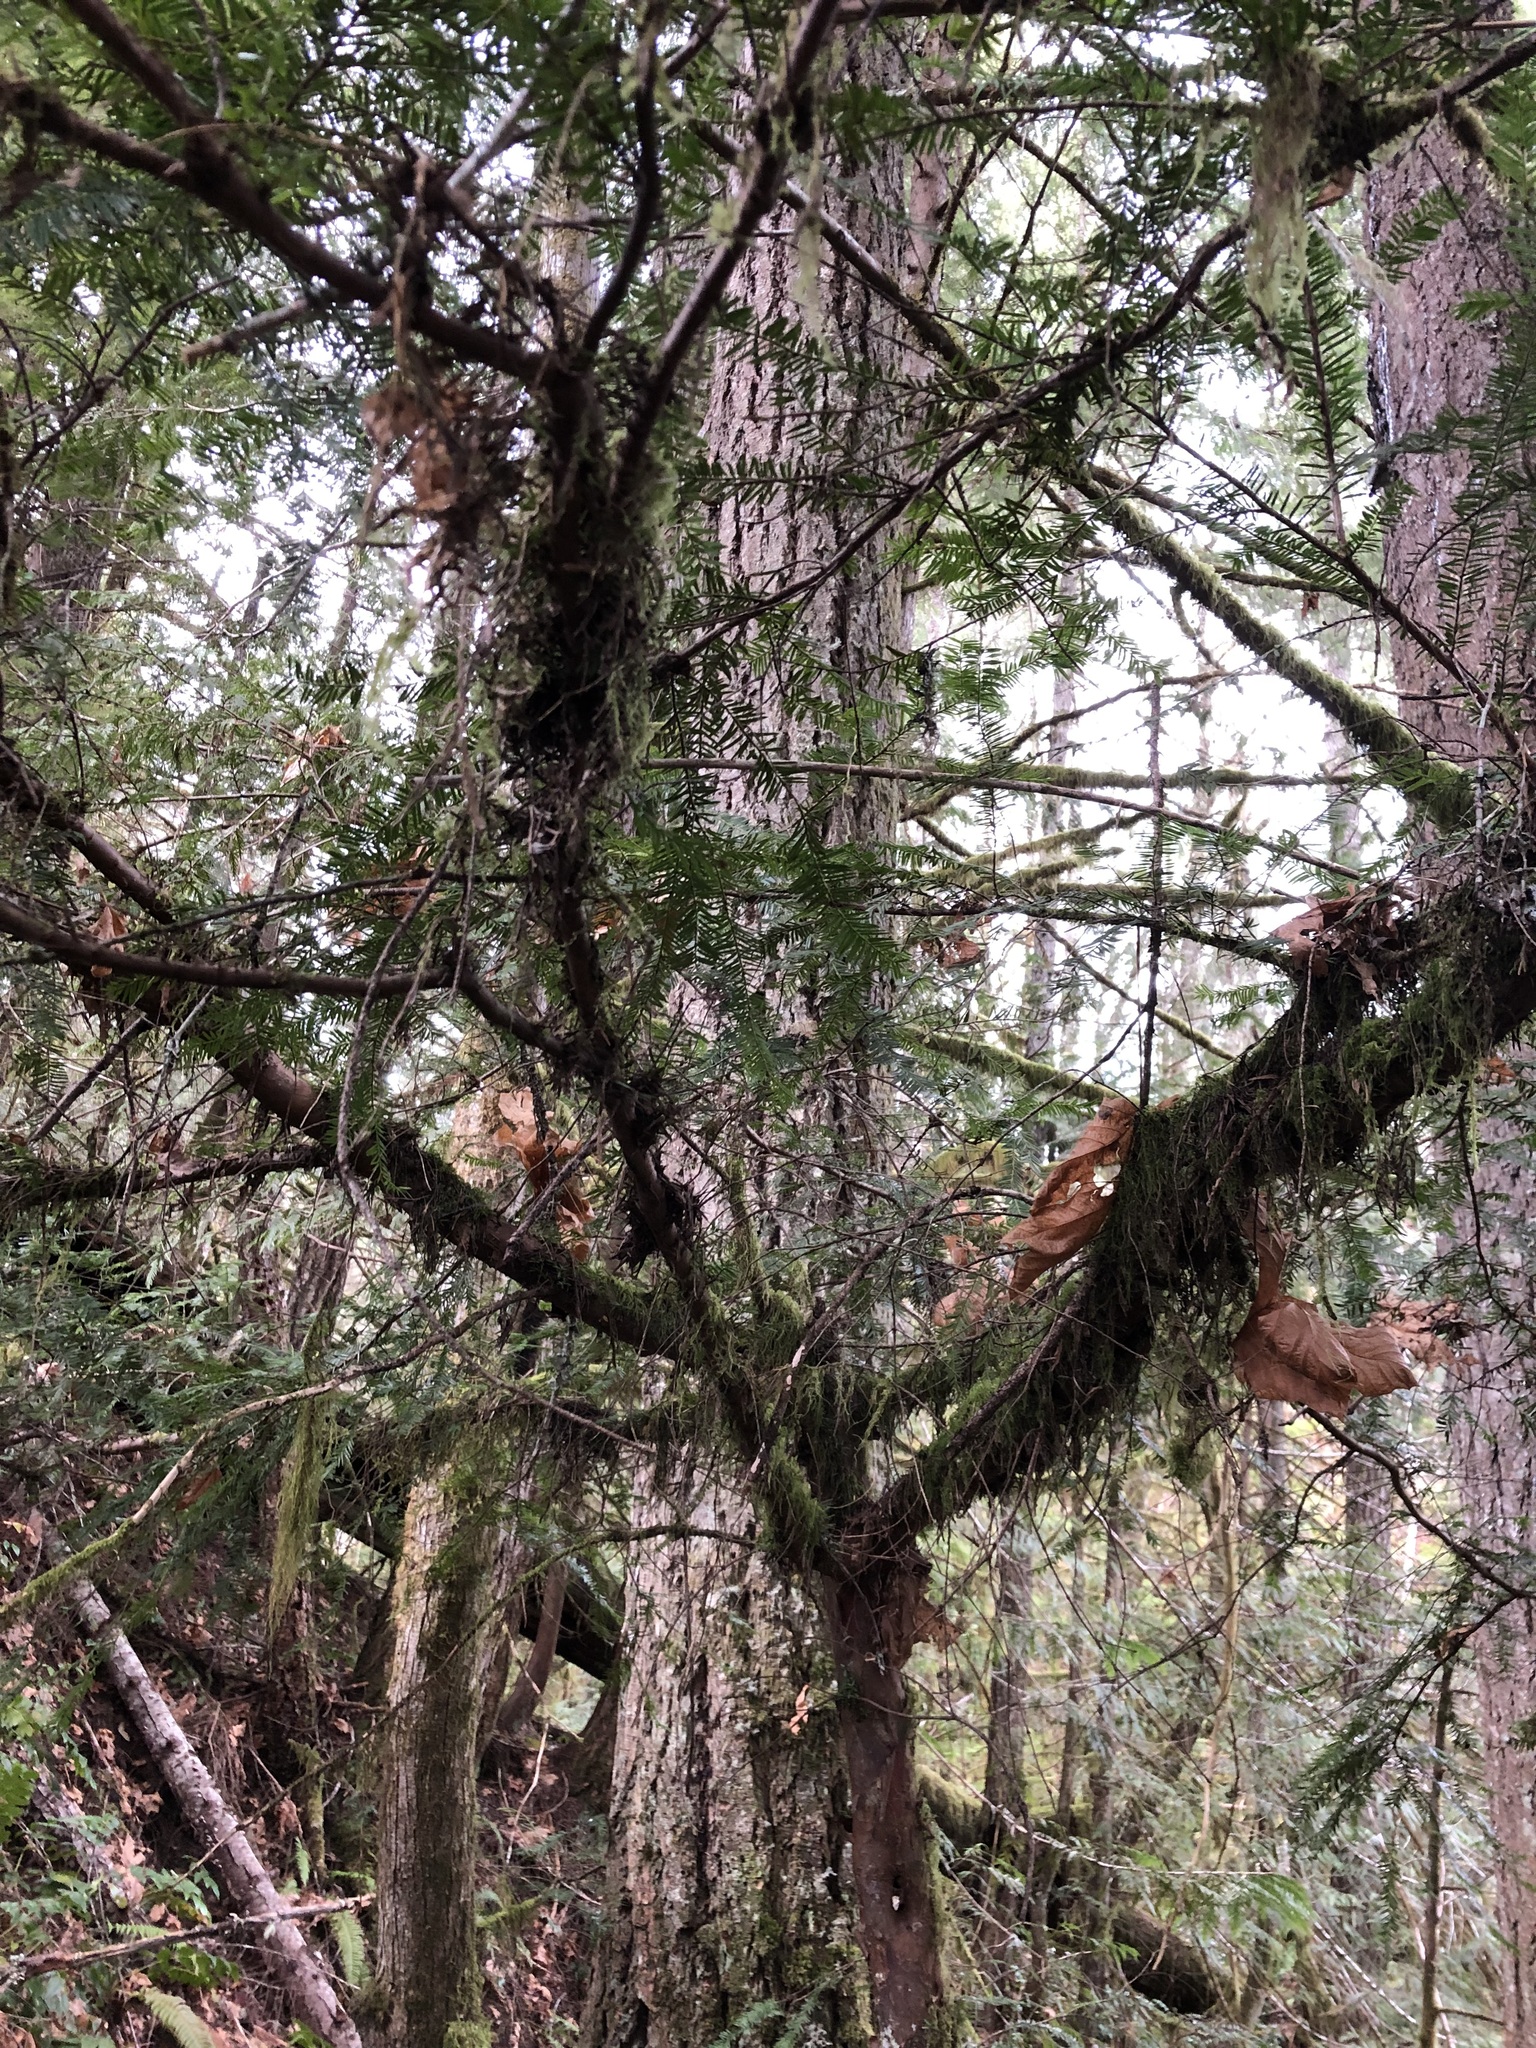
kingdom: Plantae
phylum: Tracheophyta
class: Pinopsida
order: Pinales
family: Taxaceae
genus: Taxus
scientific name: Taxus brevifolia
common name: Pacific yew
